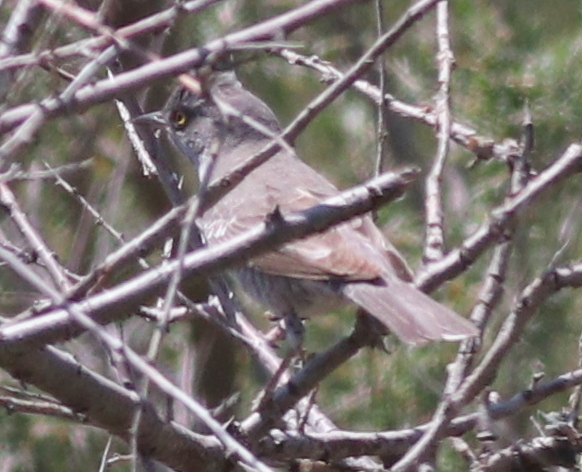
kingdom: Animalia
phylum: Chordata
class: Aves
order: Passeriformes
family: Sylviidae
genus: Sylvia
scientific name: Sylvia nisoria
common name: Barred warbler
